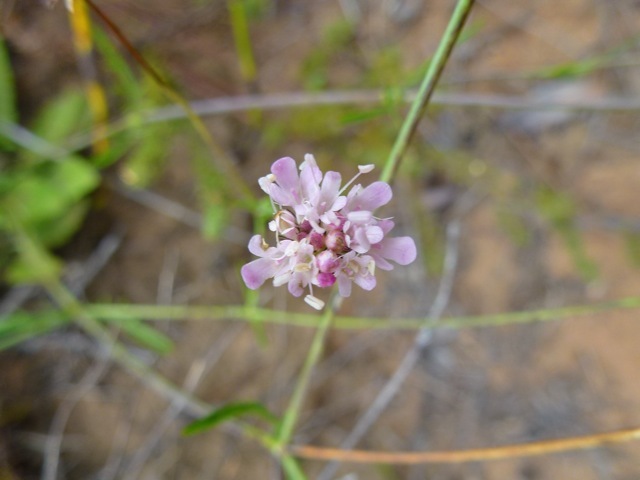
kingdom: Plantae
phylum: Tracheophyta
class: Magnoliopsida
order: Dipsacales
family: Caprifoliaceae
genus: Scabiosa
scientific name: Scabiosa columbaria
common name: Small scabious
